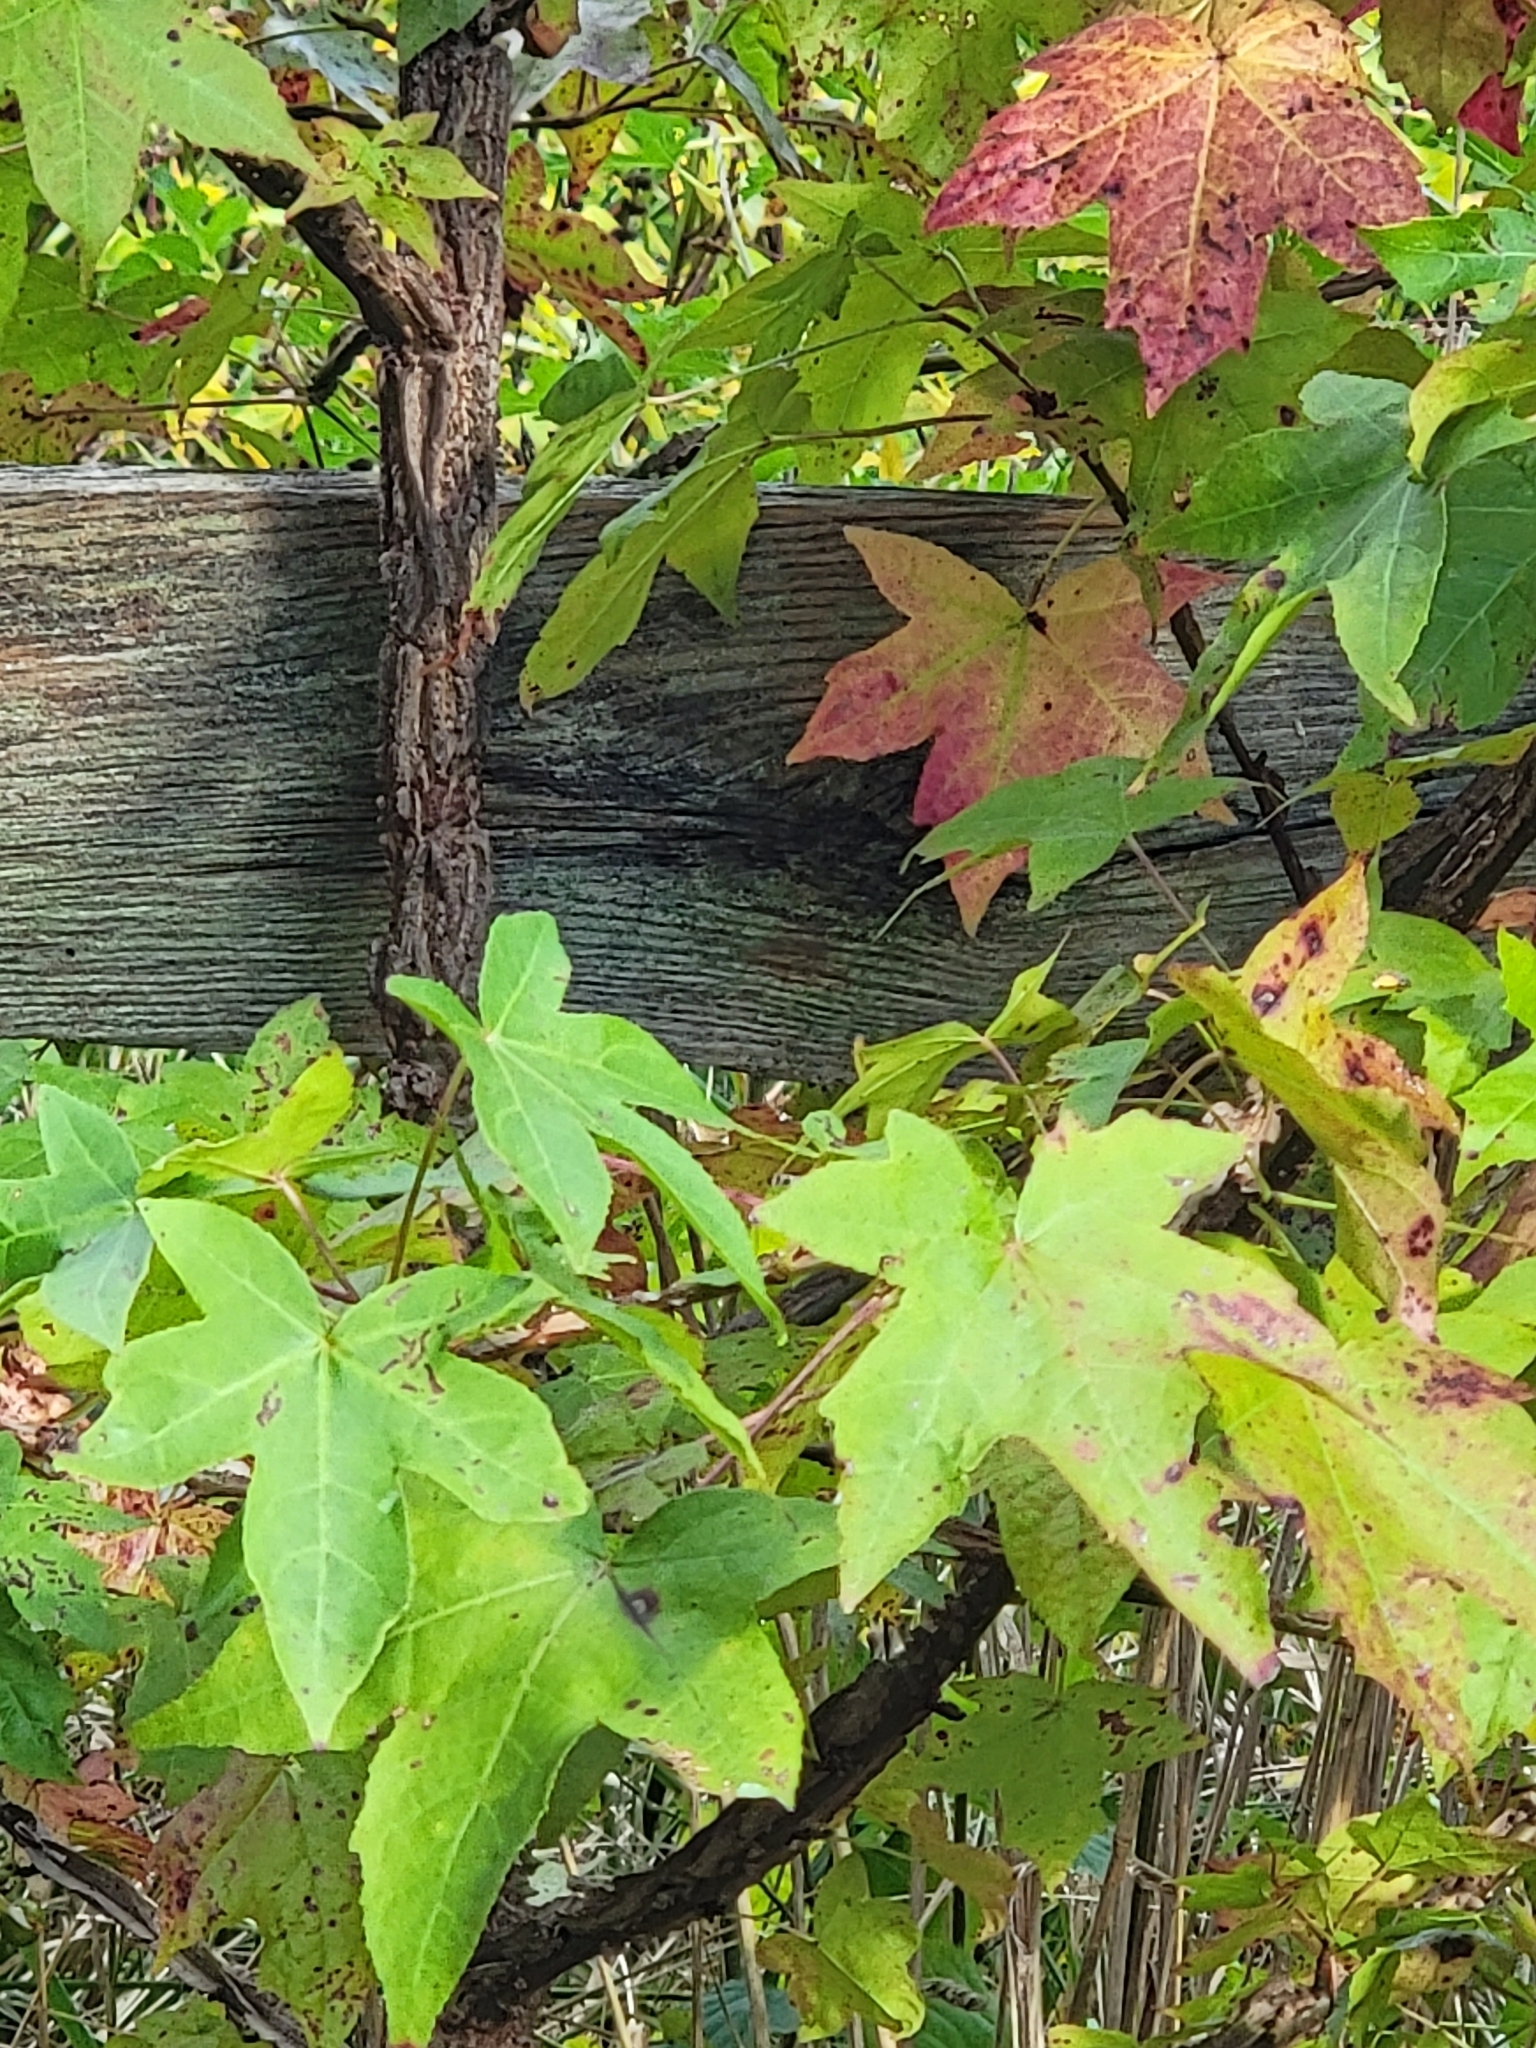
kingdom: Plantae
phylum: Tracheophyta
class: Magnoliopsida
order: Saxifragales
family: Altingiaceae
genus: Liquidambar
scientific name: Liquidambar styraciflua
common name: Sweet gum
